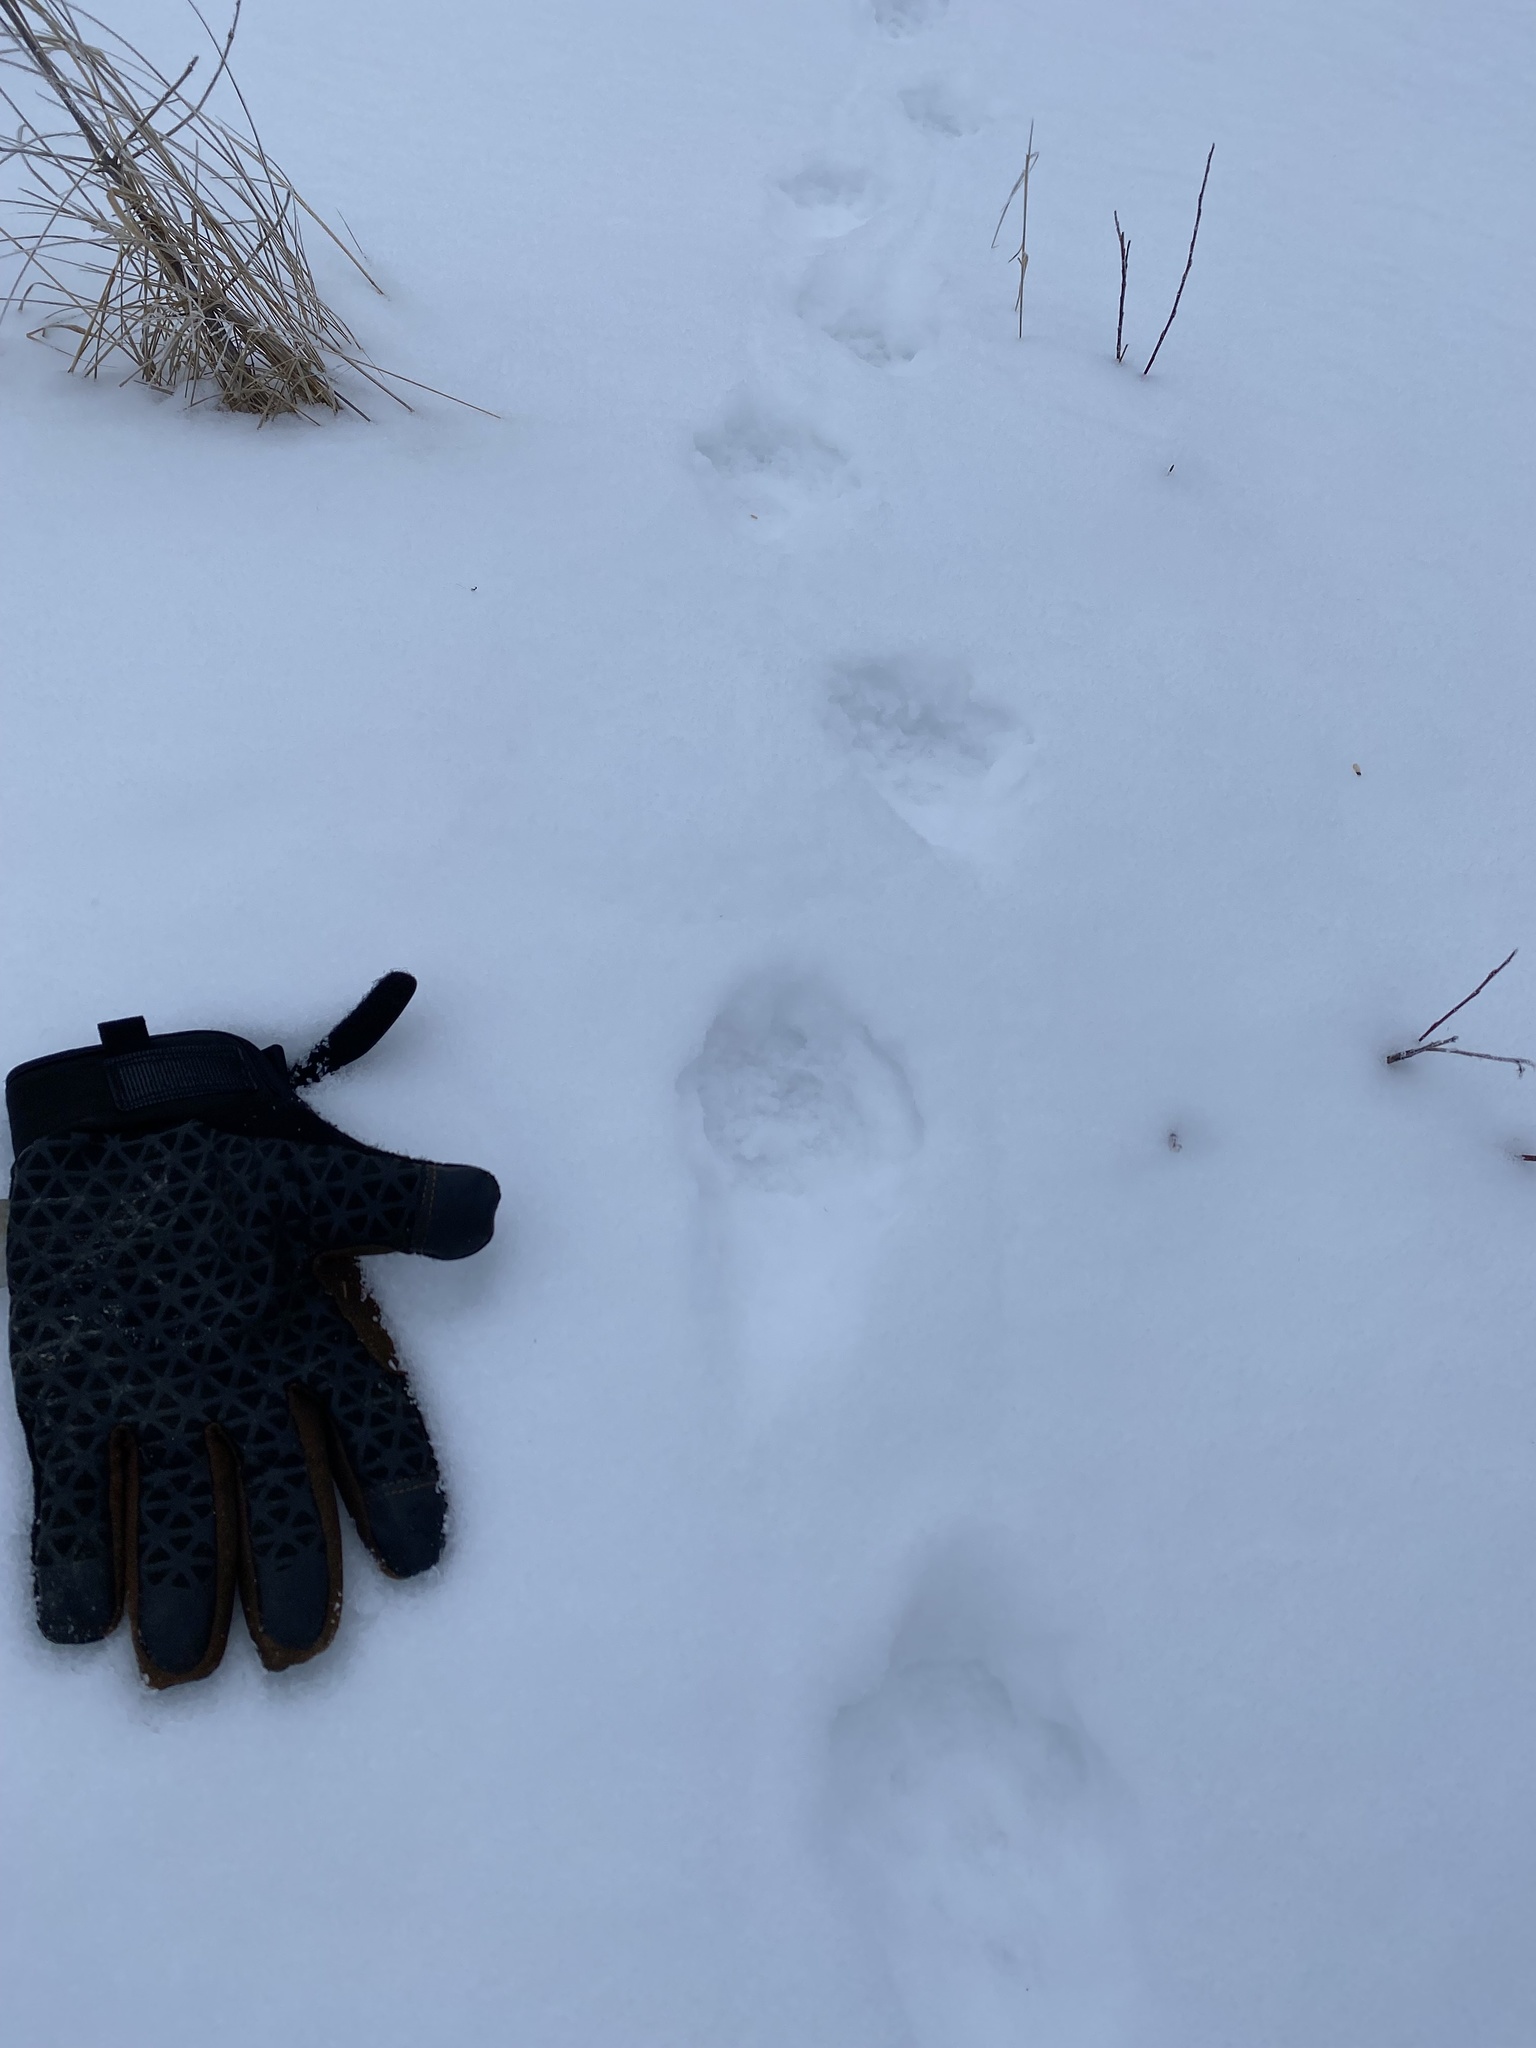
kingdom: Animalia
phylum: Chordata
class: Mammalia
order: Carnivora
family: Felidae
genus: Lynx
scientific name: Lynx canadensis
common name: Canadian lynx
